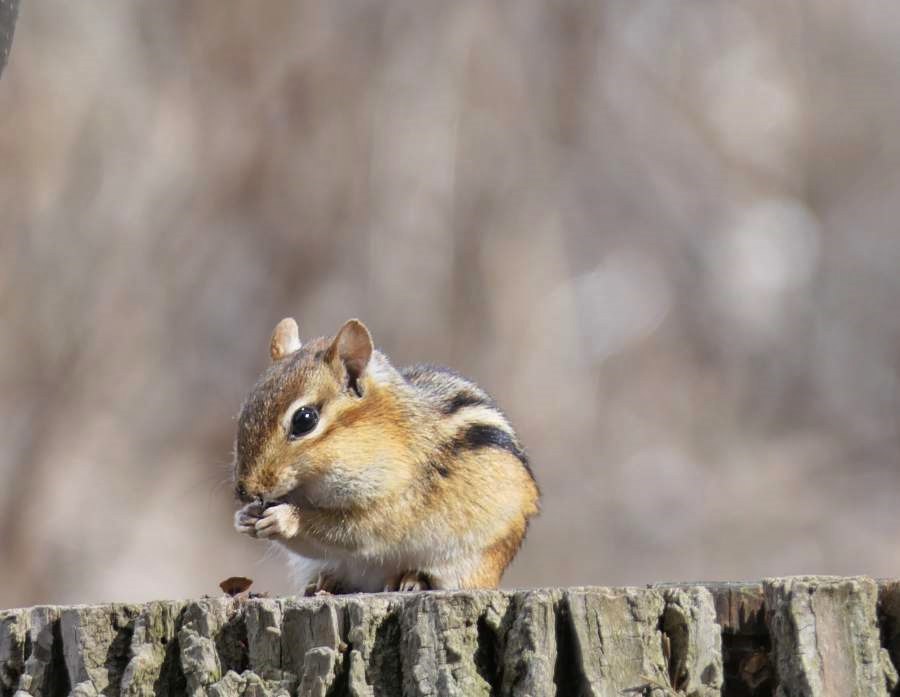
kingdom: Animalia
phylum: Chordata
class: Mammalia
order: Rodentia
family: Sciuridae
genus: Tamias
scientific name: Tamias striatus
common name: Eastern chipmunk
